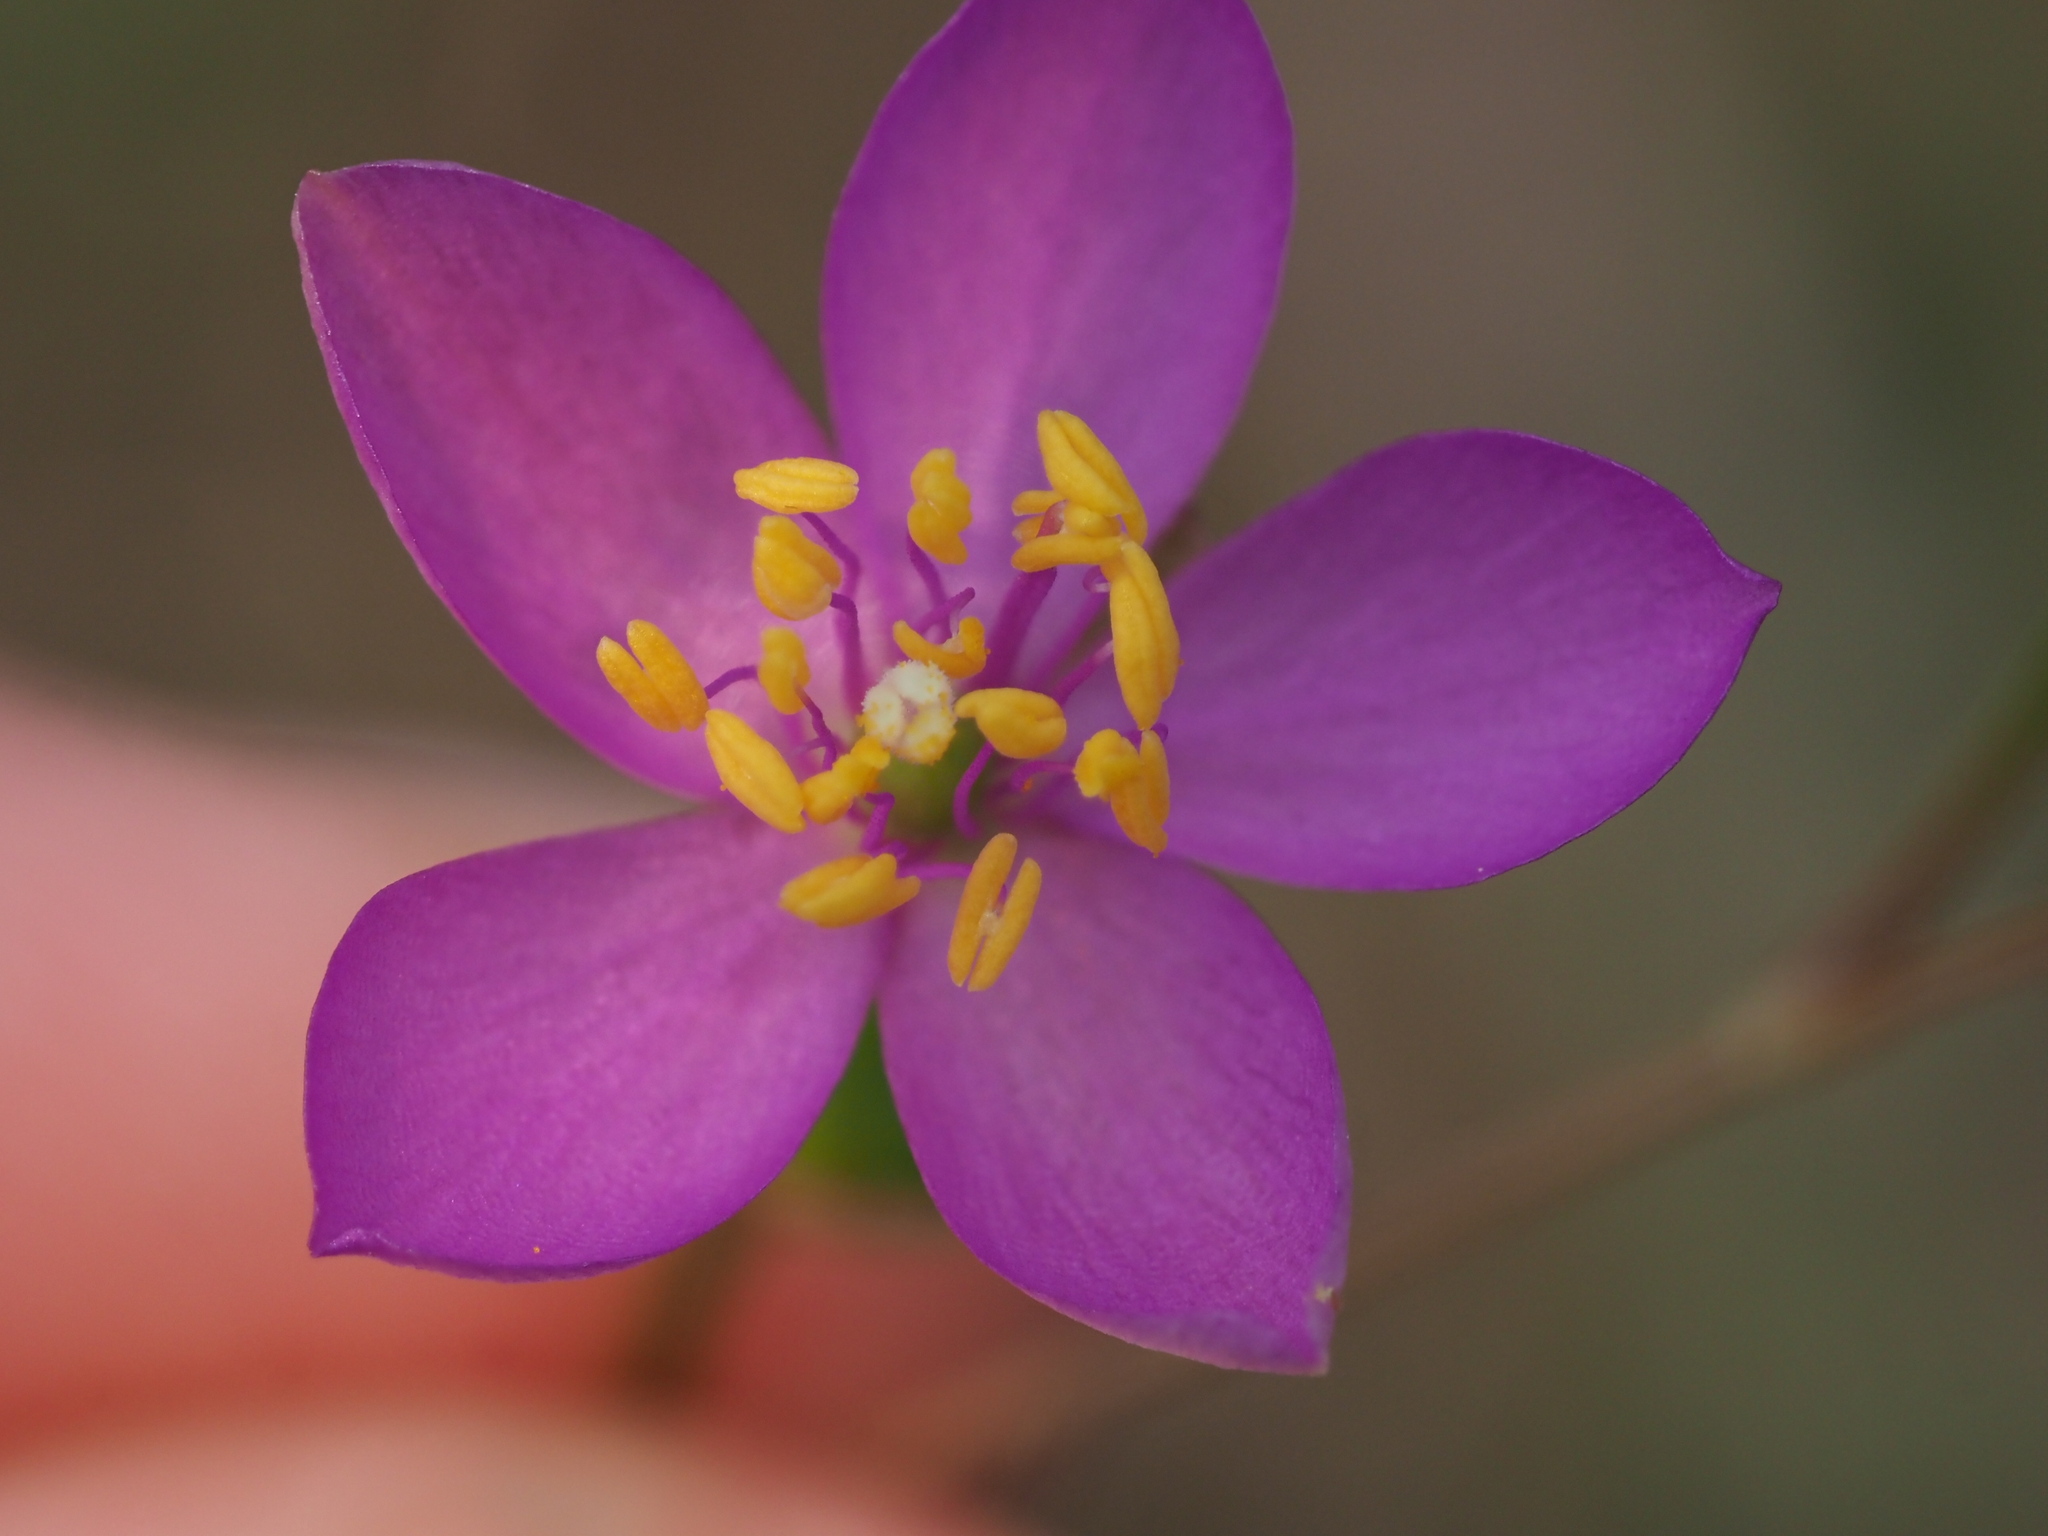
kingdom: Plantae
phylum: Tracheophyta
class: Magnoliopsida
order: Caryophyllales
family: Montiaceae
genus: Phemeranthus
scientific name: Phemeranthus teretifolius
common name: Quill fameflower
